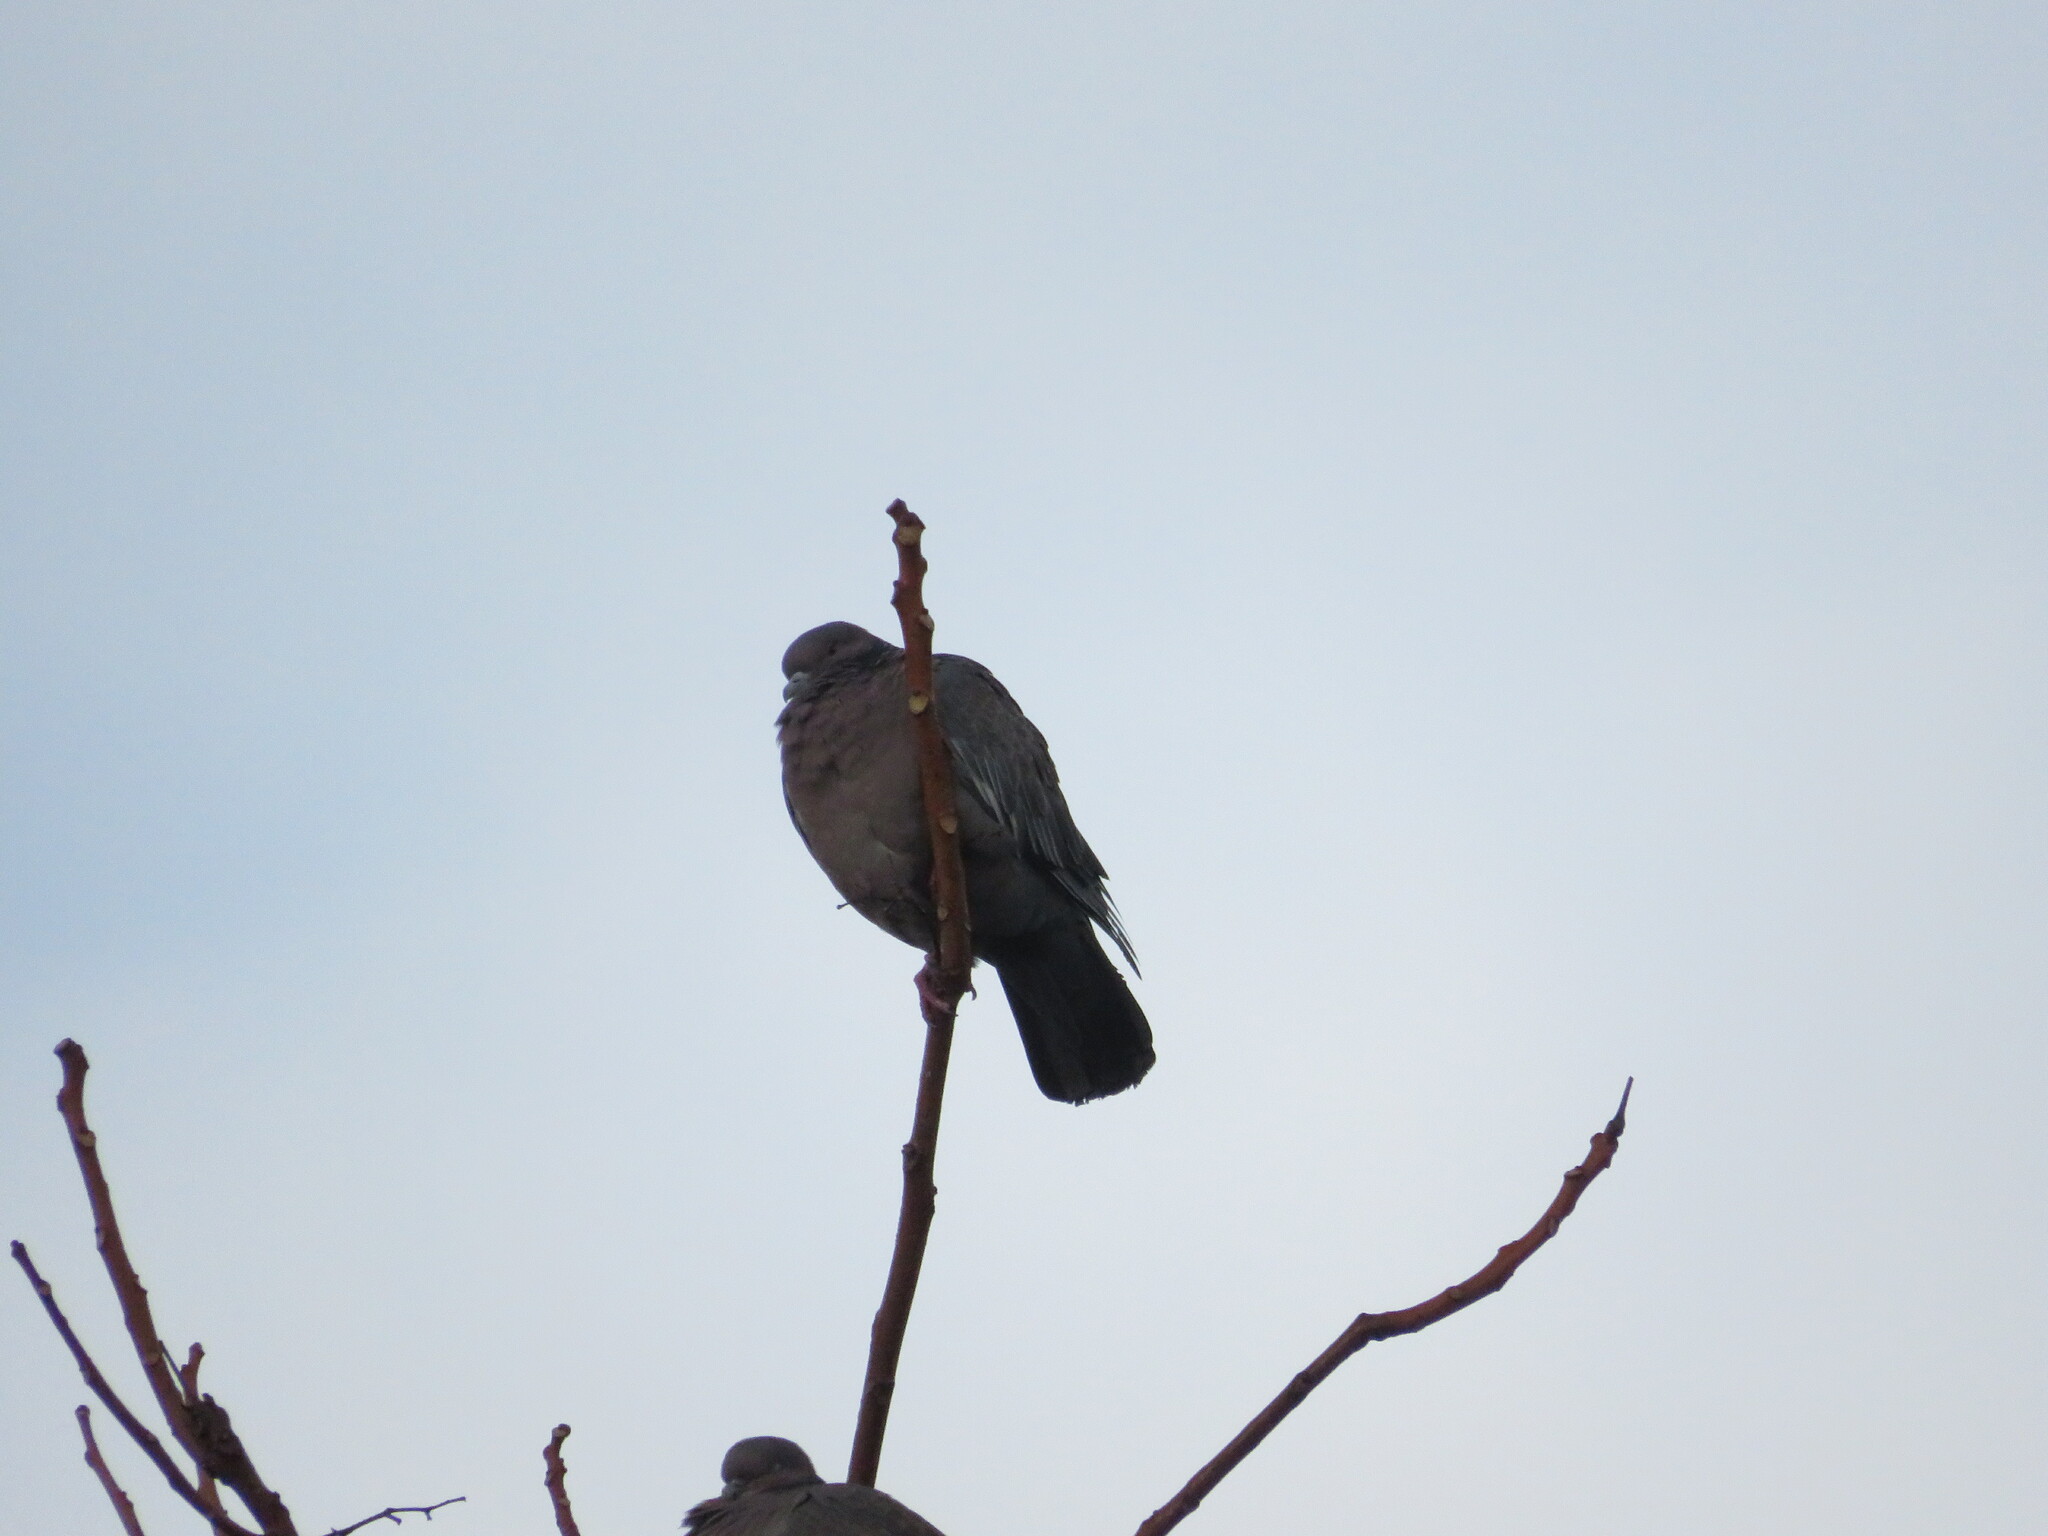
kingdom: Animalia
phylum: Chordata
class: Aves
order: Columbiformes
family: Columbidae
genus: Patagioenas
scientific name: Patagioenas picazuro
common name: Picazuro pigeon
